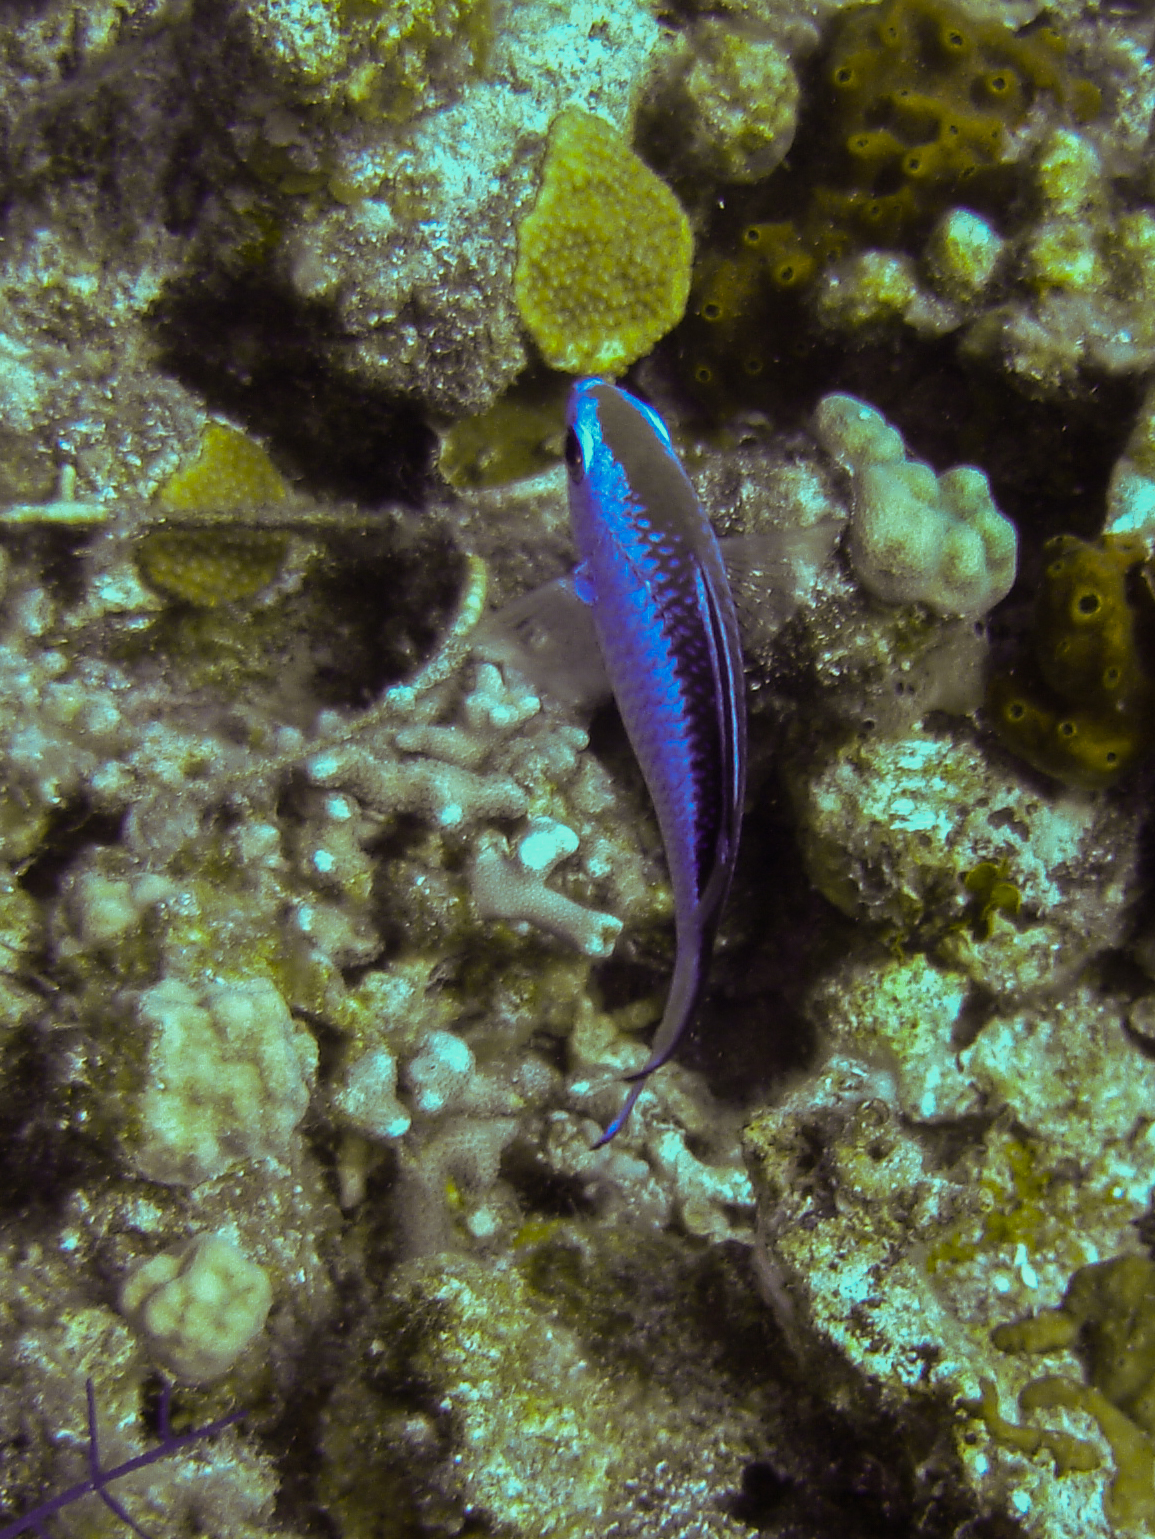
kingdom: Animalia
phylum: Chordata
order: Perciformes
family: Pomacentridae
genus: Chromis
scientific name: Chromis cyanea
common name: Blue chromis
